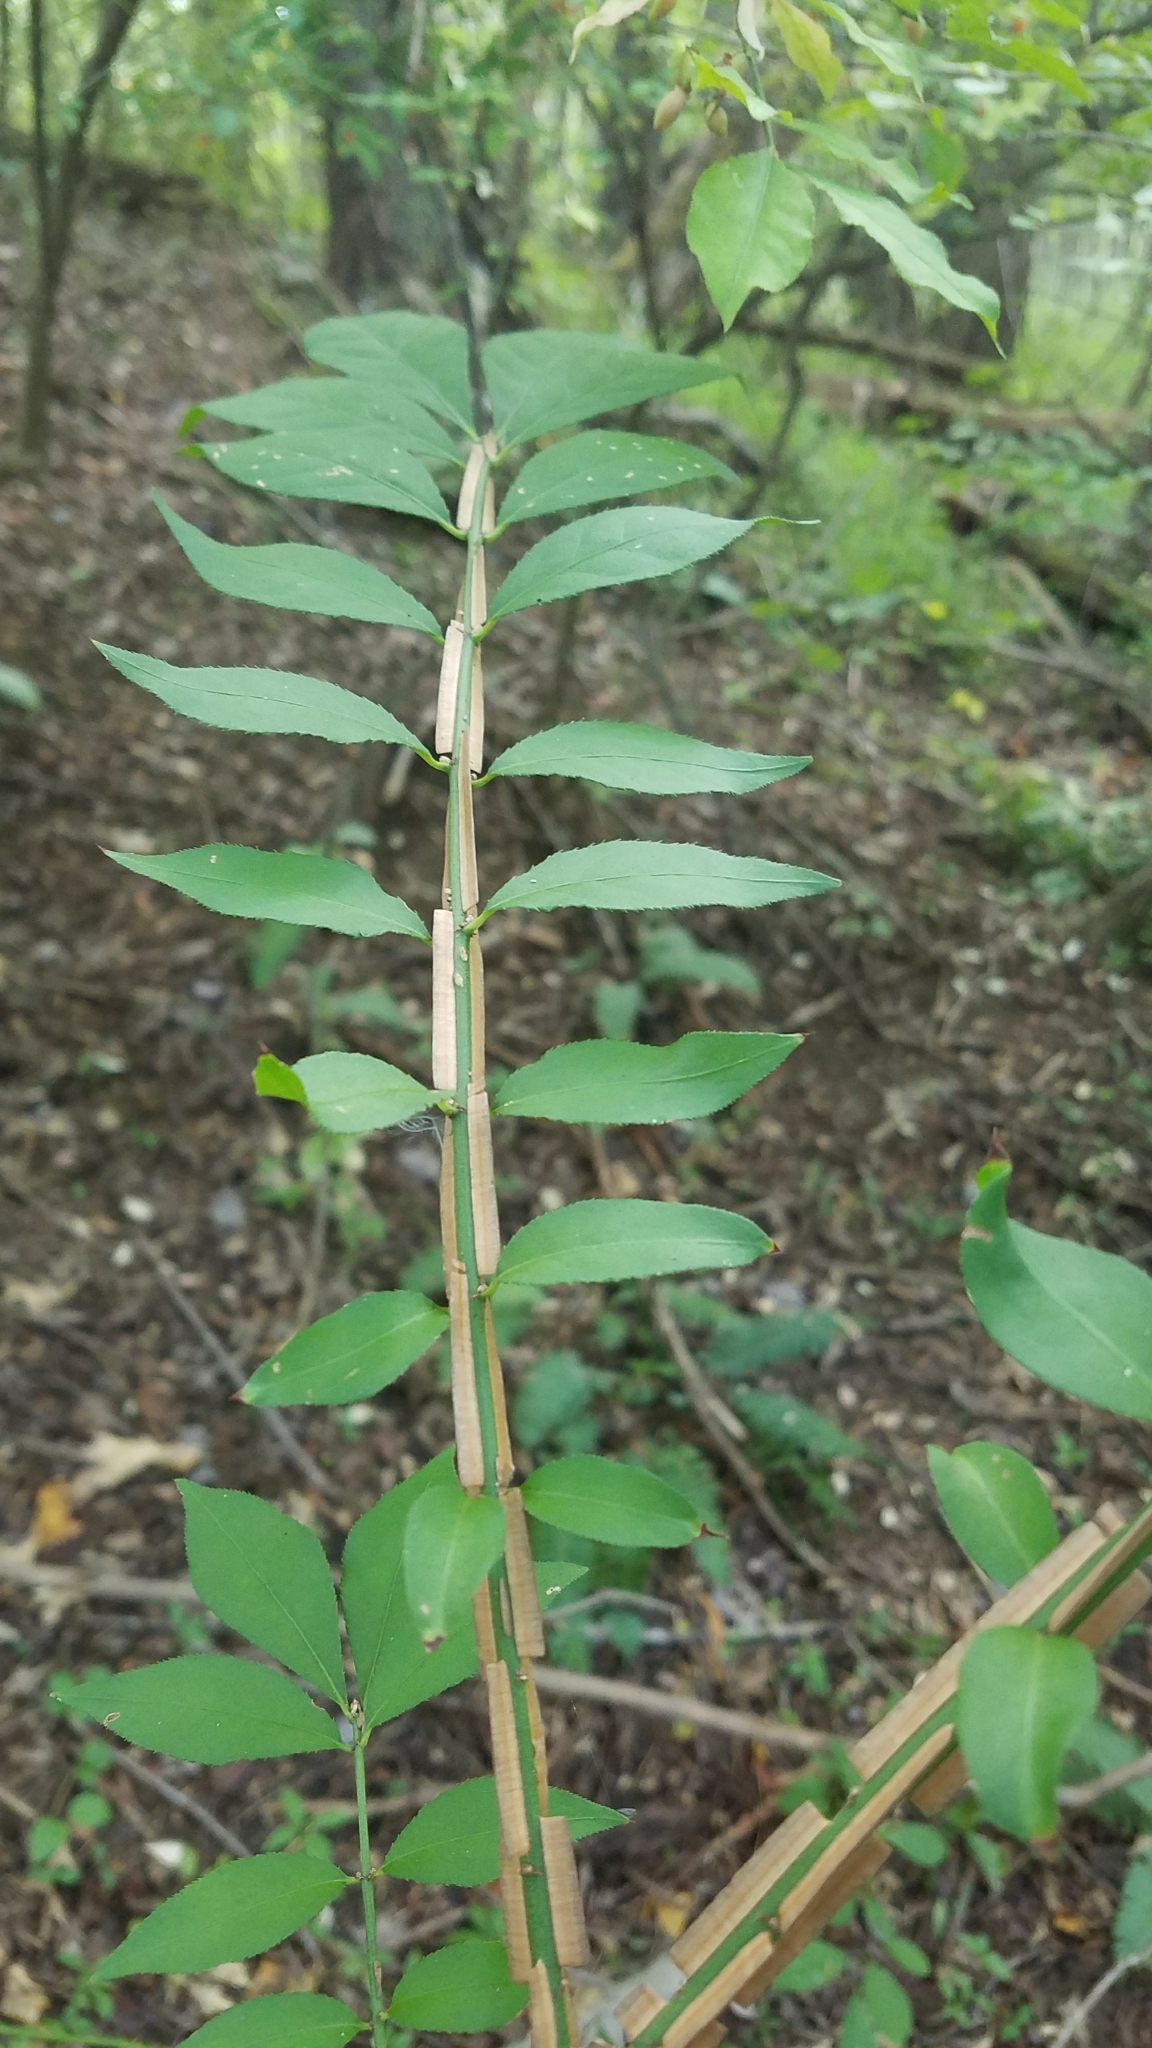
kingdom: Plantae
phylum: Tracheophyta
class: Magnoliopsida
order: Celastrales
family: Celastraceae
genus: Euonymus
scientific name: Euonymus alatus
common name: Winged euonymus
